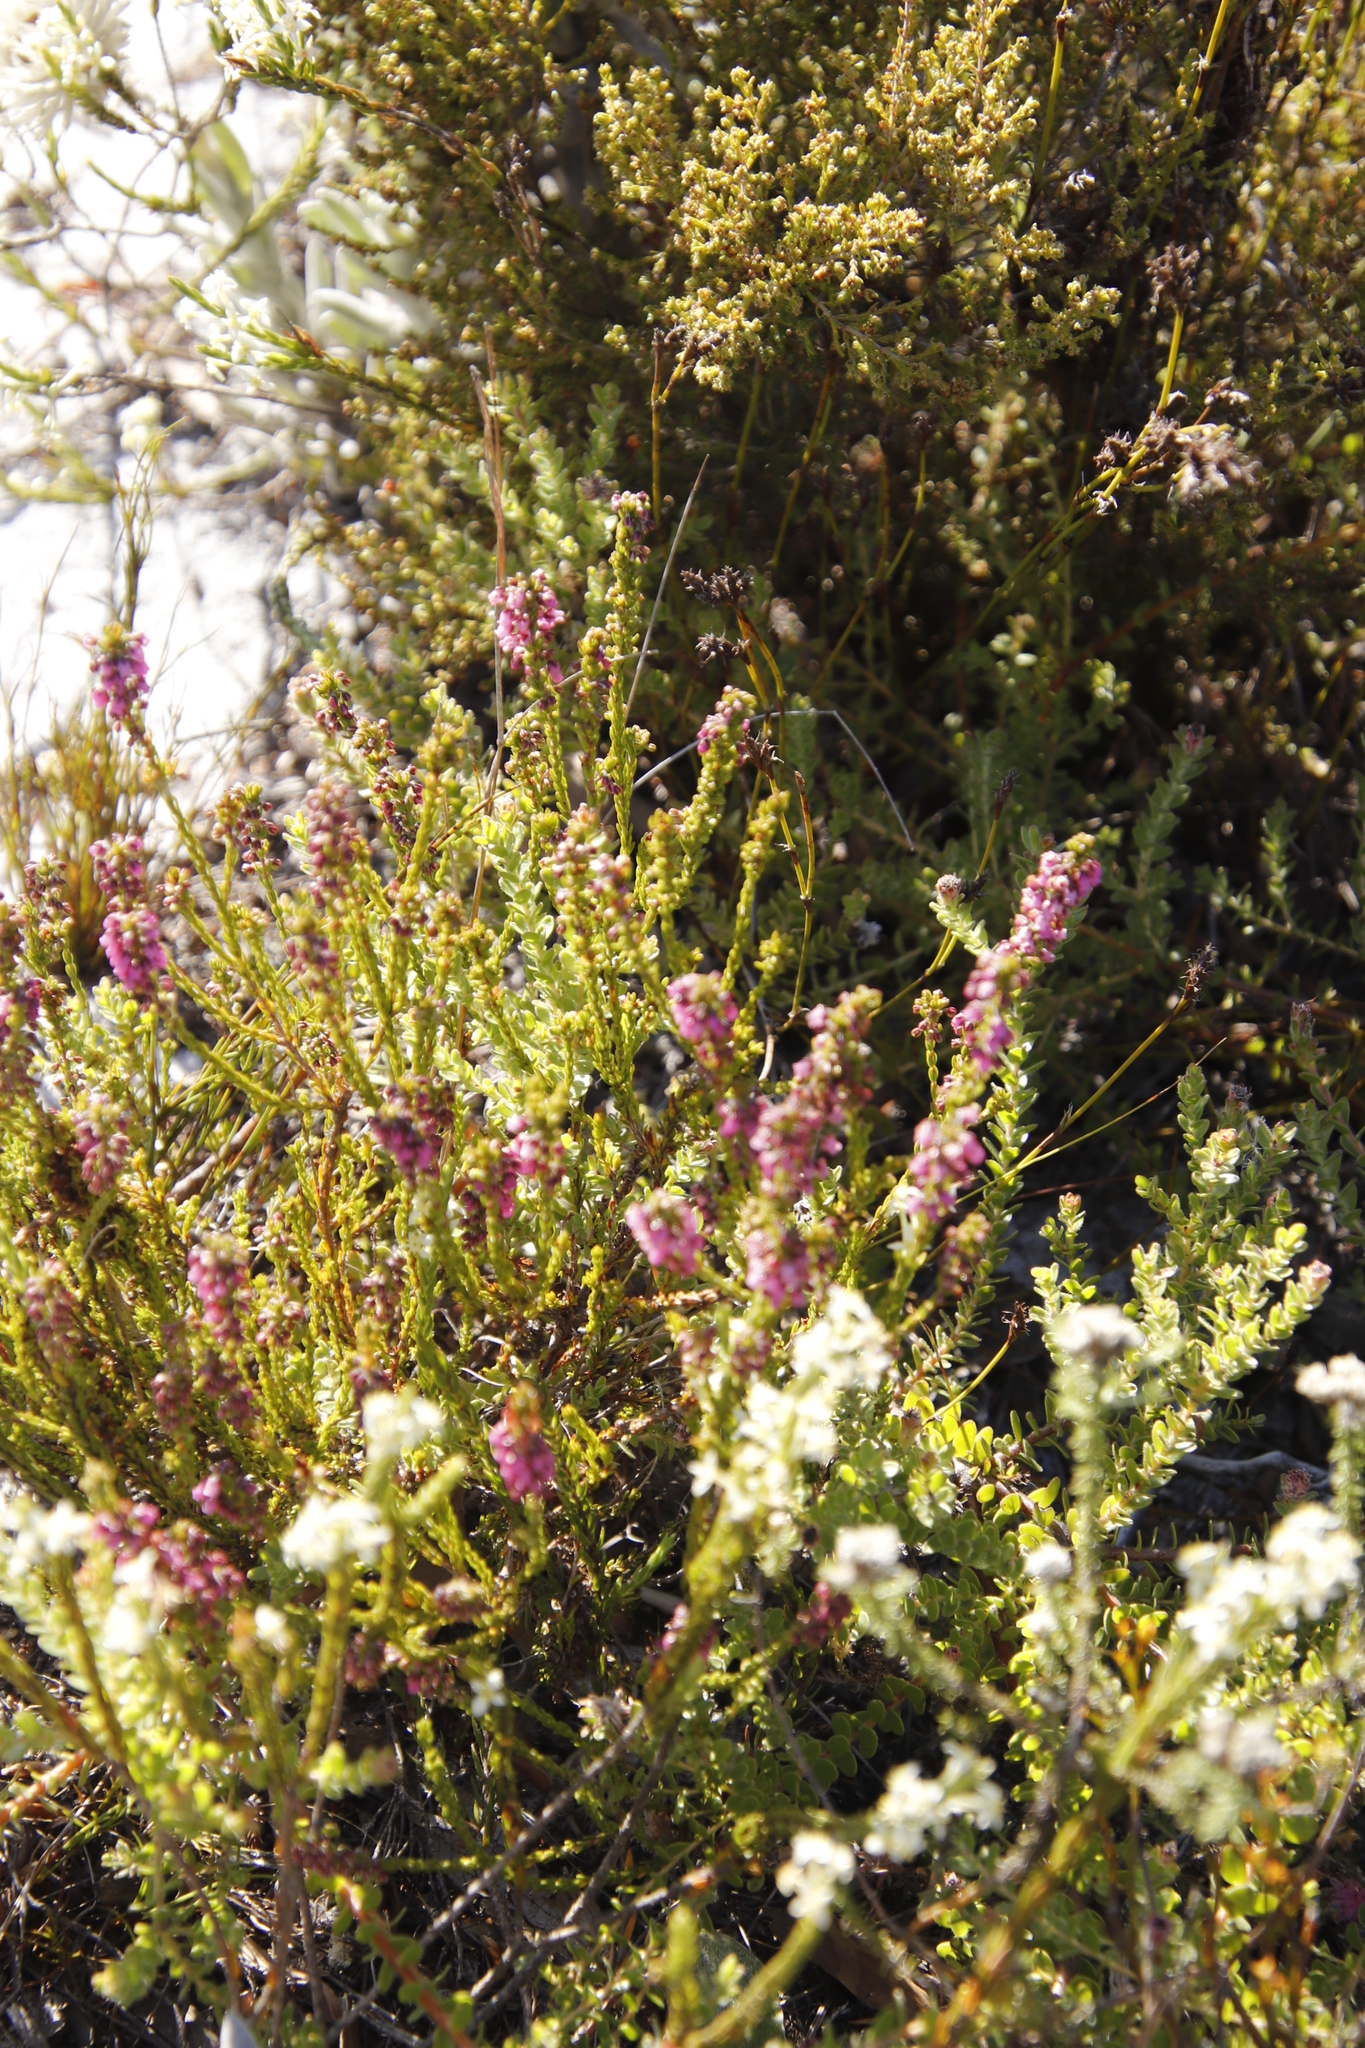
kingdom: Plantae
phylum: Tracheophyta
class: Magnoliopsida
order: Ericales
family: Ericaceae
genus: Erica
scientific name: Erica pulchella
